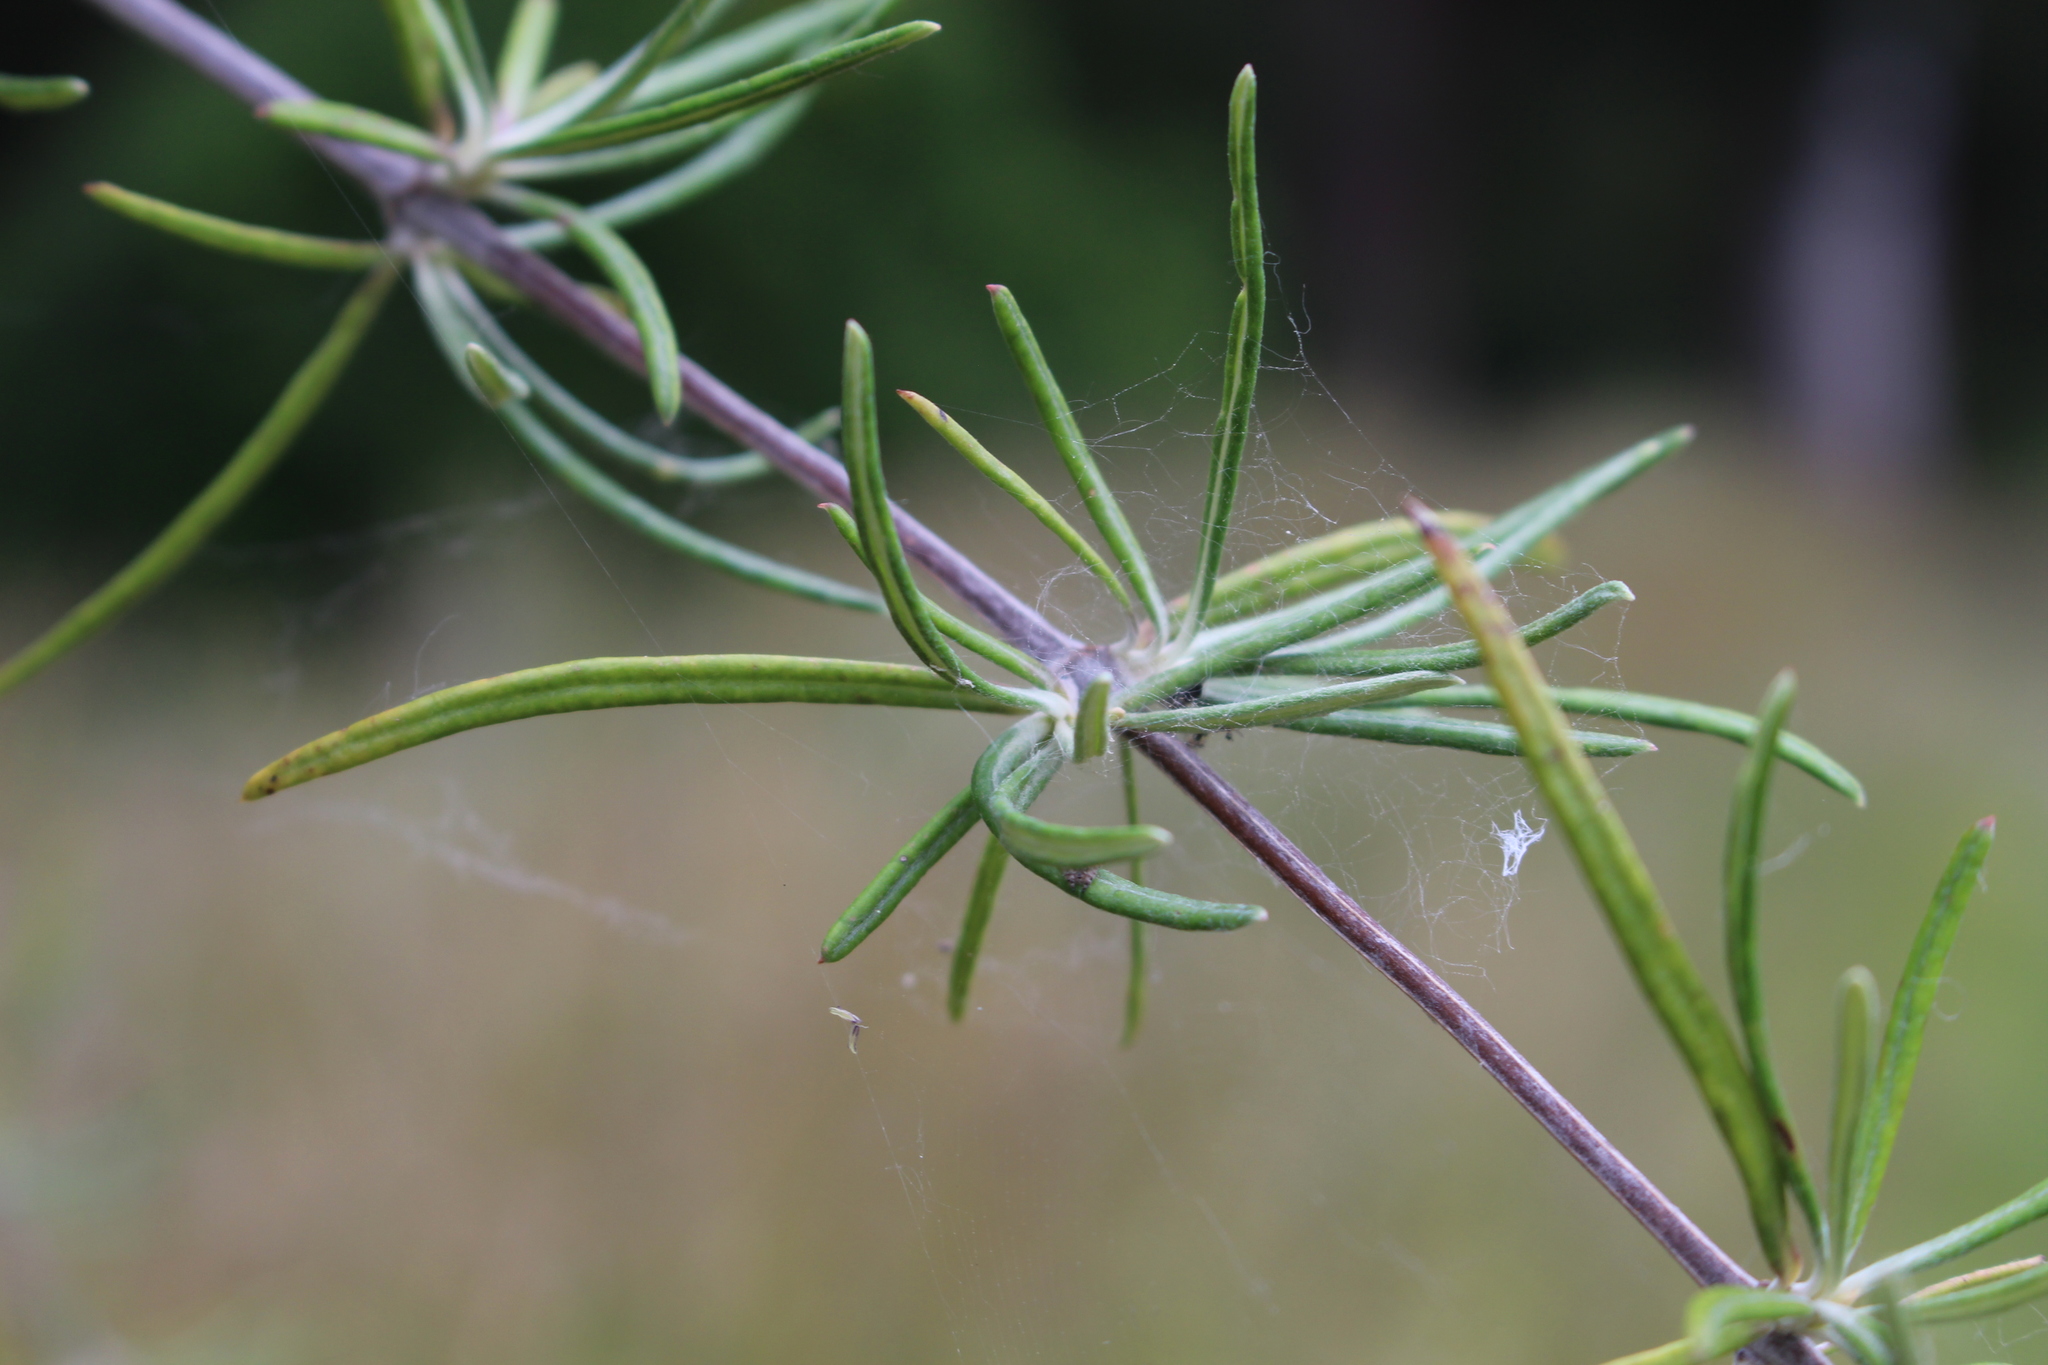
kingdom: Plantae
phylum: Tracheophyta
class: Magnoliopsida
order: Asterales
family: Asteraceae
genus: Olearia
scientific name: Olearia lineata
